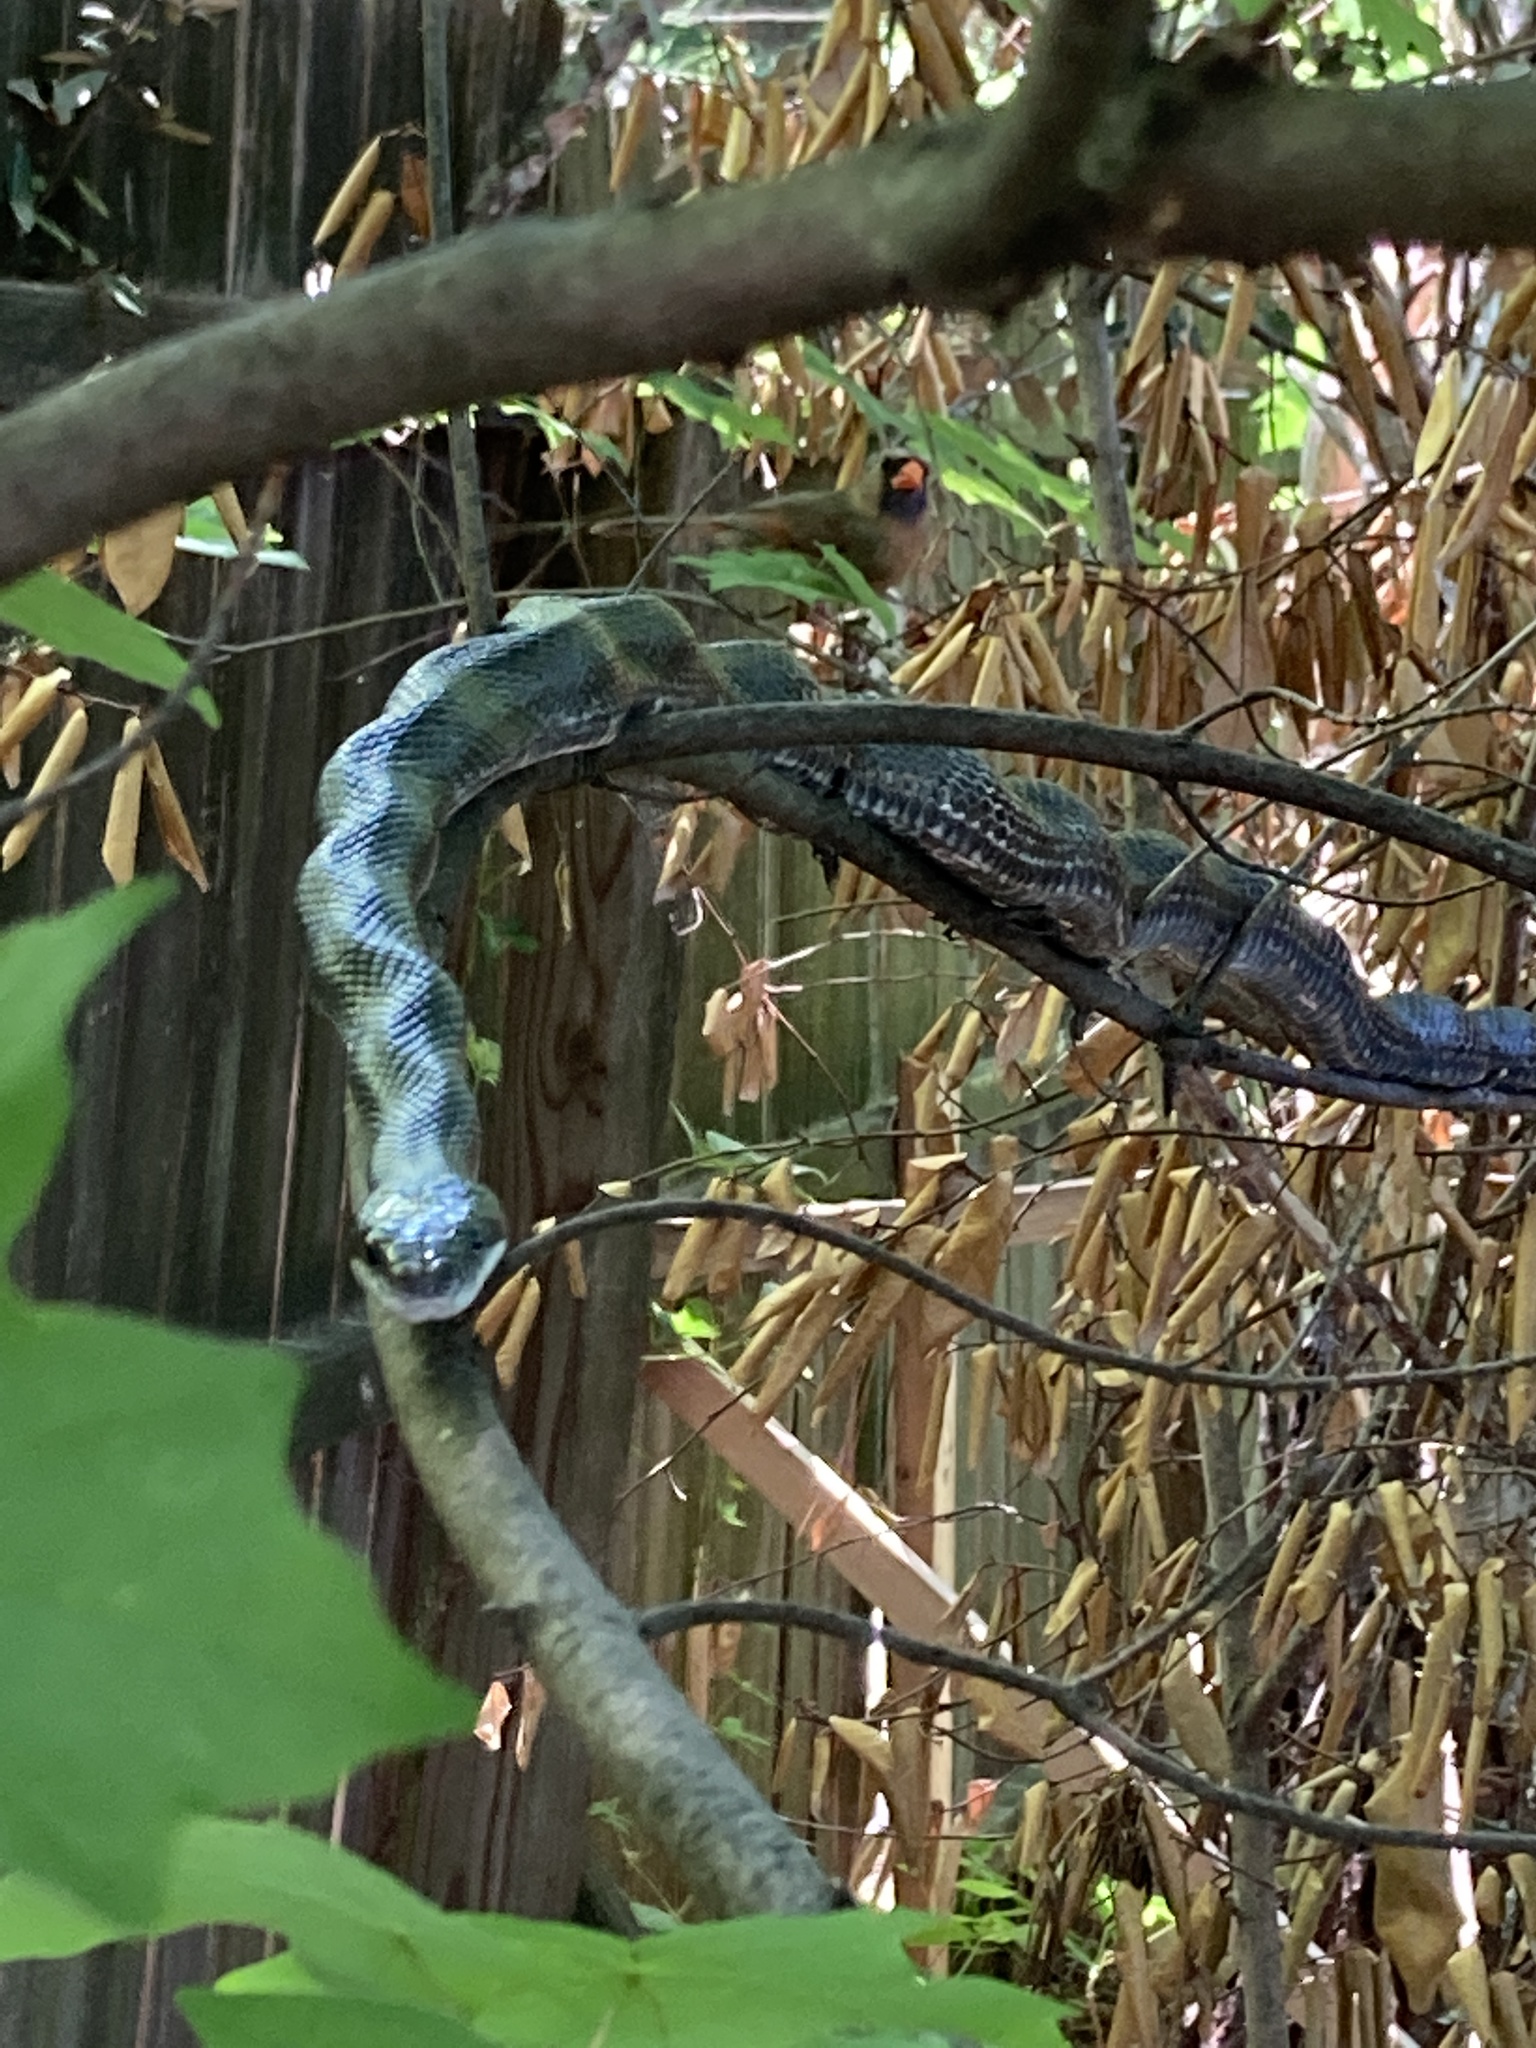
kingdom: Animalia
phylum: Chordata
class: Squamata
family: Colubridae
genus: Pantherophis
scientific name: Pantherophis alleghaniensis
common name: Eastern rat snake
